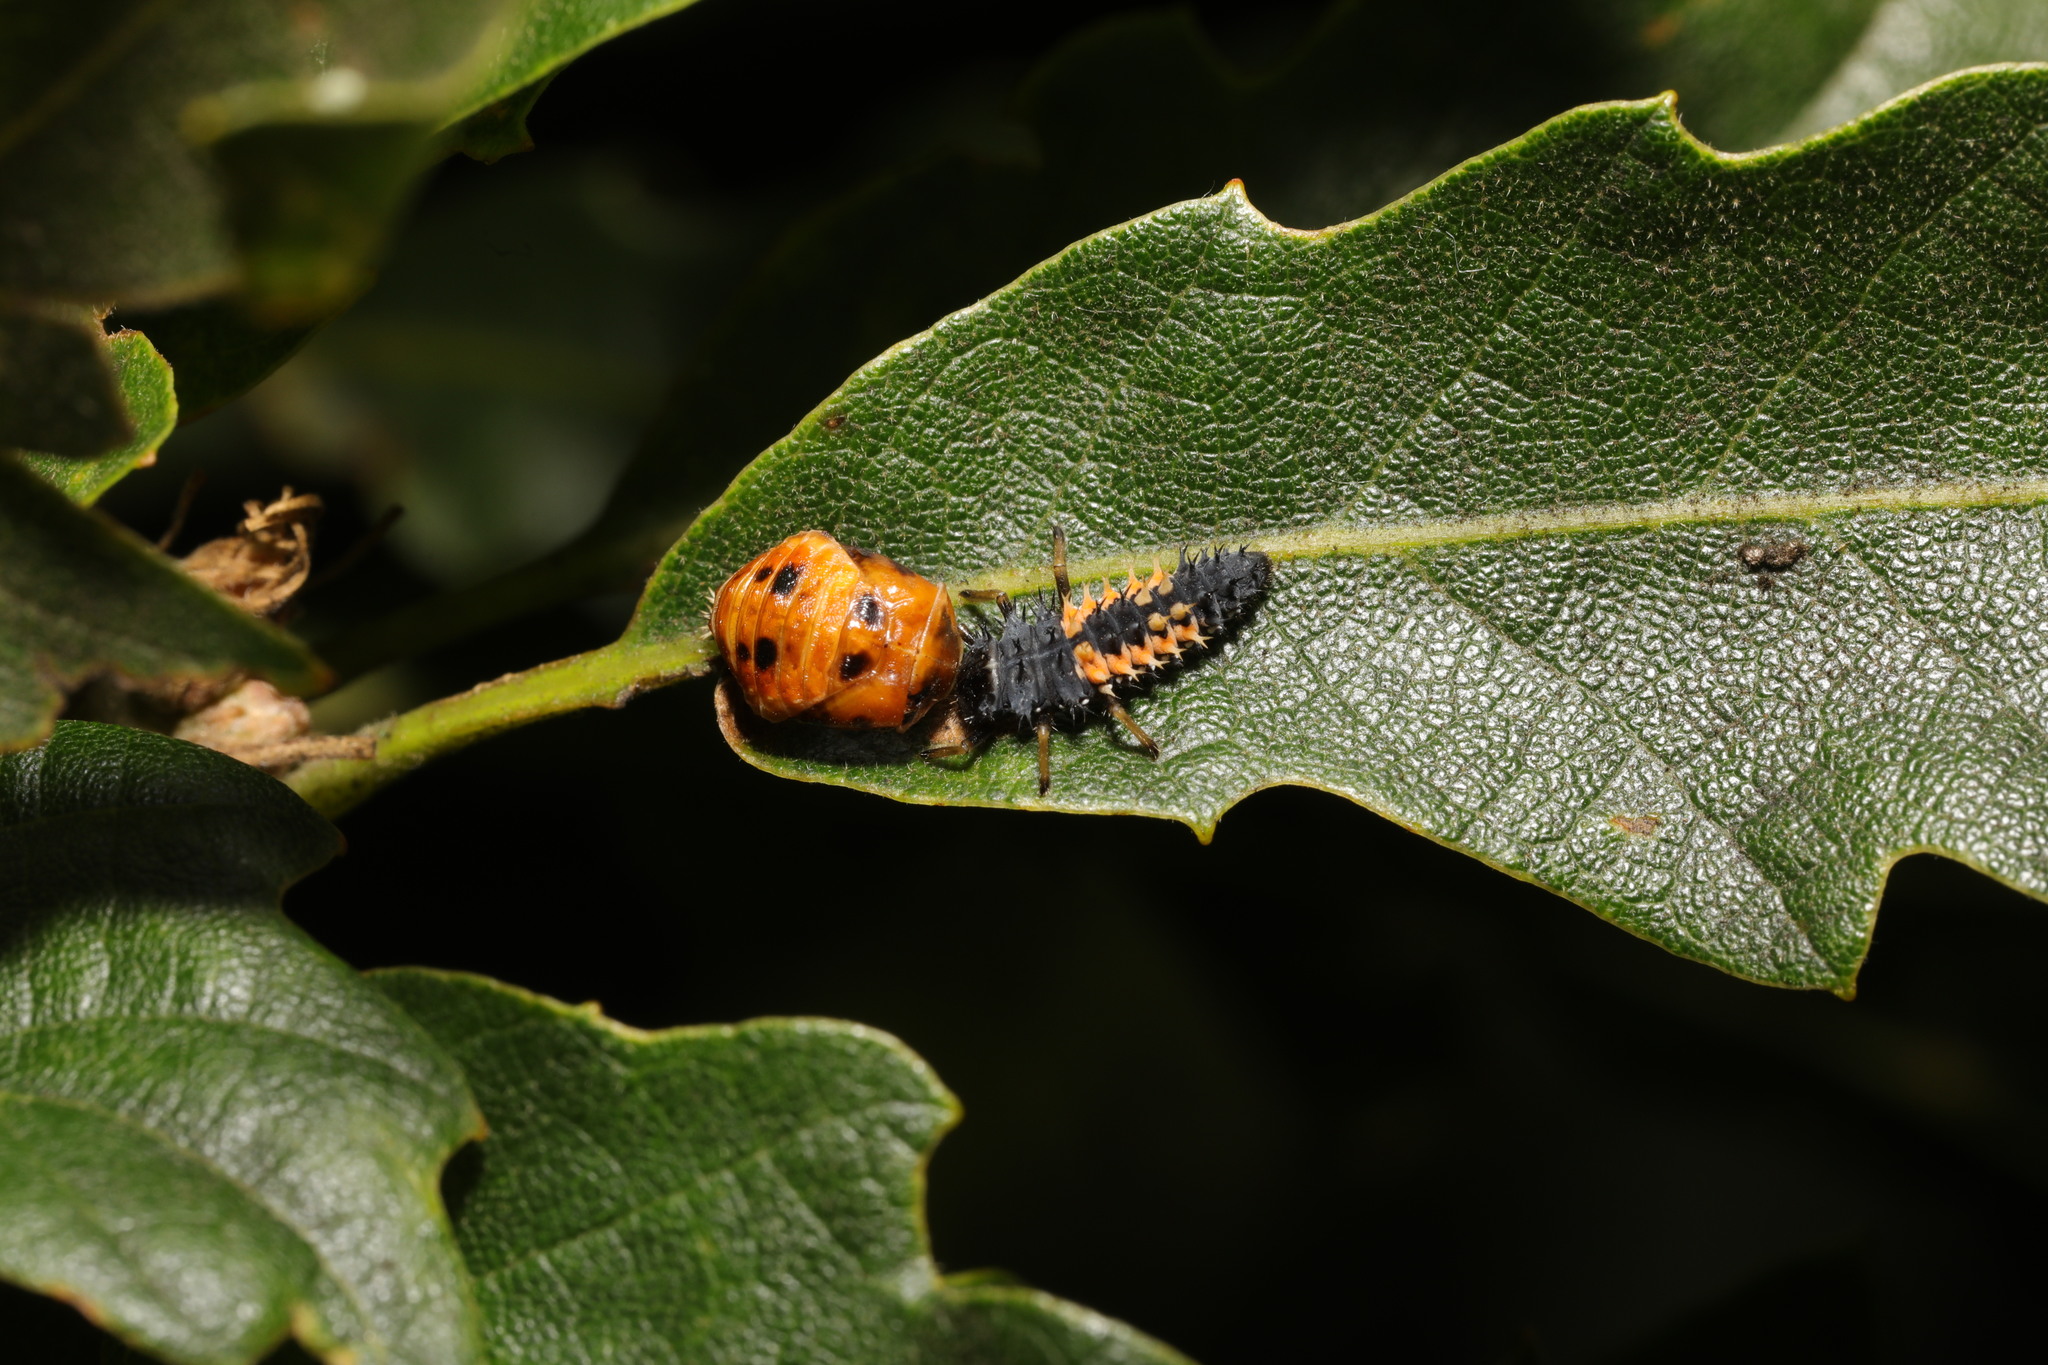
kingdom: Animalia
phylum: Arthropoda
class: Insecta
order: Coleoptera
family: Coccinellidae
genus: Harmonia
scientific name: Harmonia axyridis
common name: Harlequin ladybird
